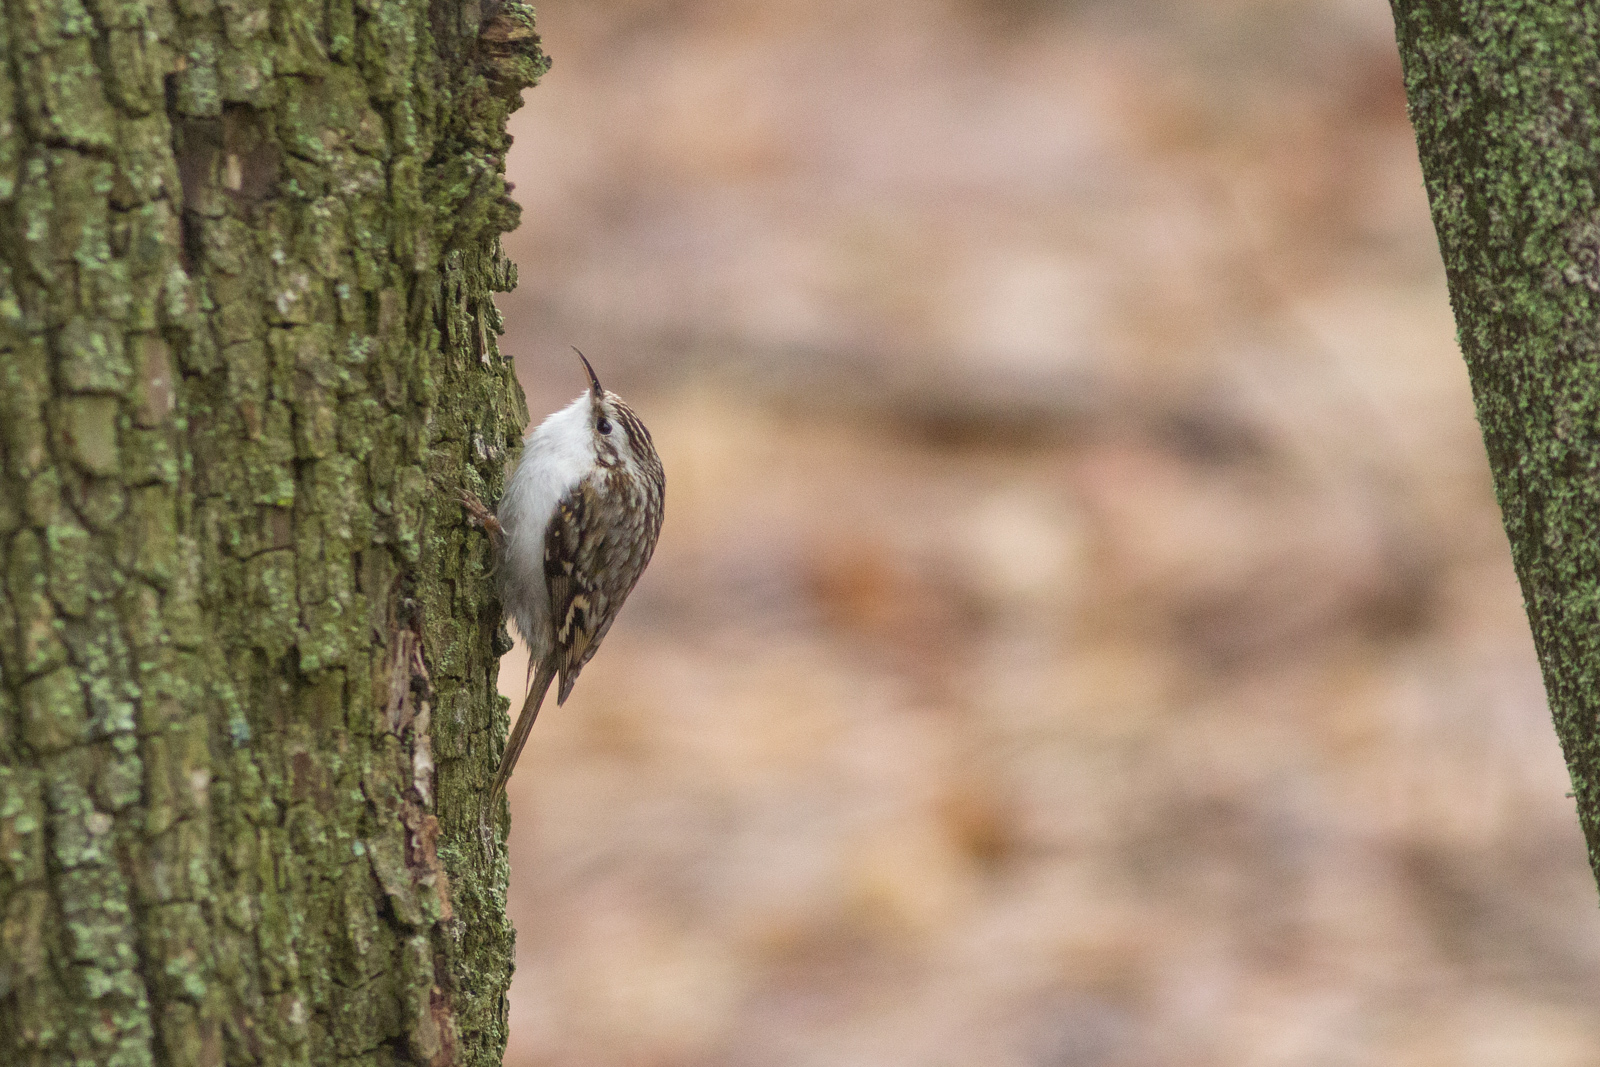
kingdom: Animalia
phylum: Chordata
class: Aves
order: Passeriformes
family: Certhiidae
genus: Certhia
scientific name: Certhia familiaris
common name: Eurasian treecreeper
